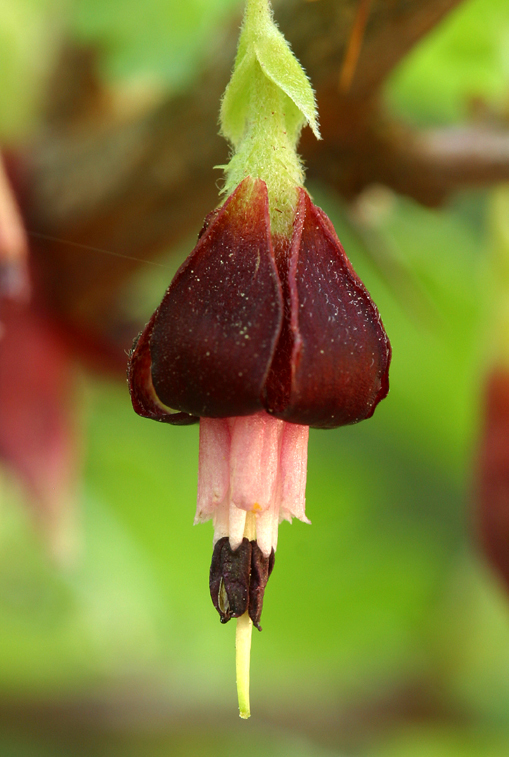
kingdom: Plantae
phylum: Tracheophyta
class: Magnoliopsida
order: Saxifragales
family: Grossulariaceae
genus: Ribes
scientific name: Ribes roezlii
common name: Sierra gooseberry
